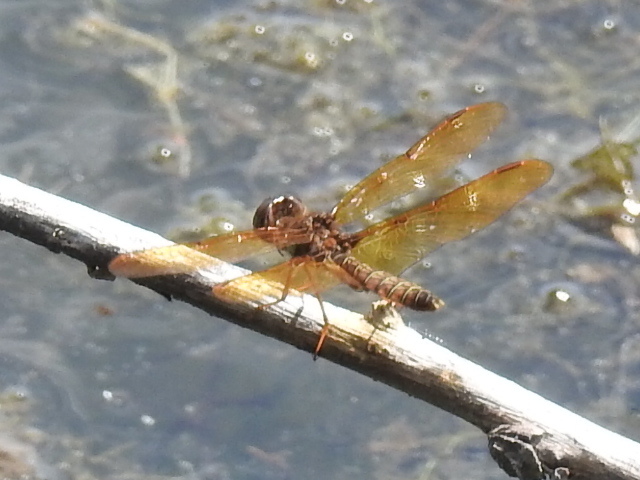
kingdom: Animalia
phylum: Arthropoda
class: Insecta
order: Odonata
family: Libellulidae
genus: Perithemis
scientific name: Perithemis tenera
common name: Eastern amberwing
